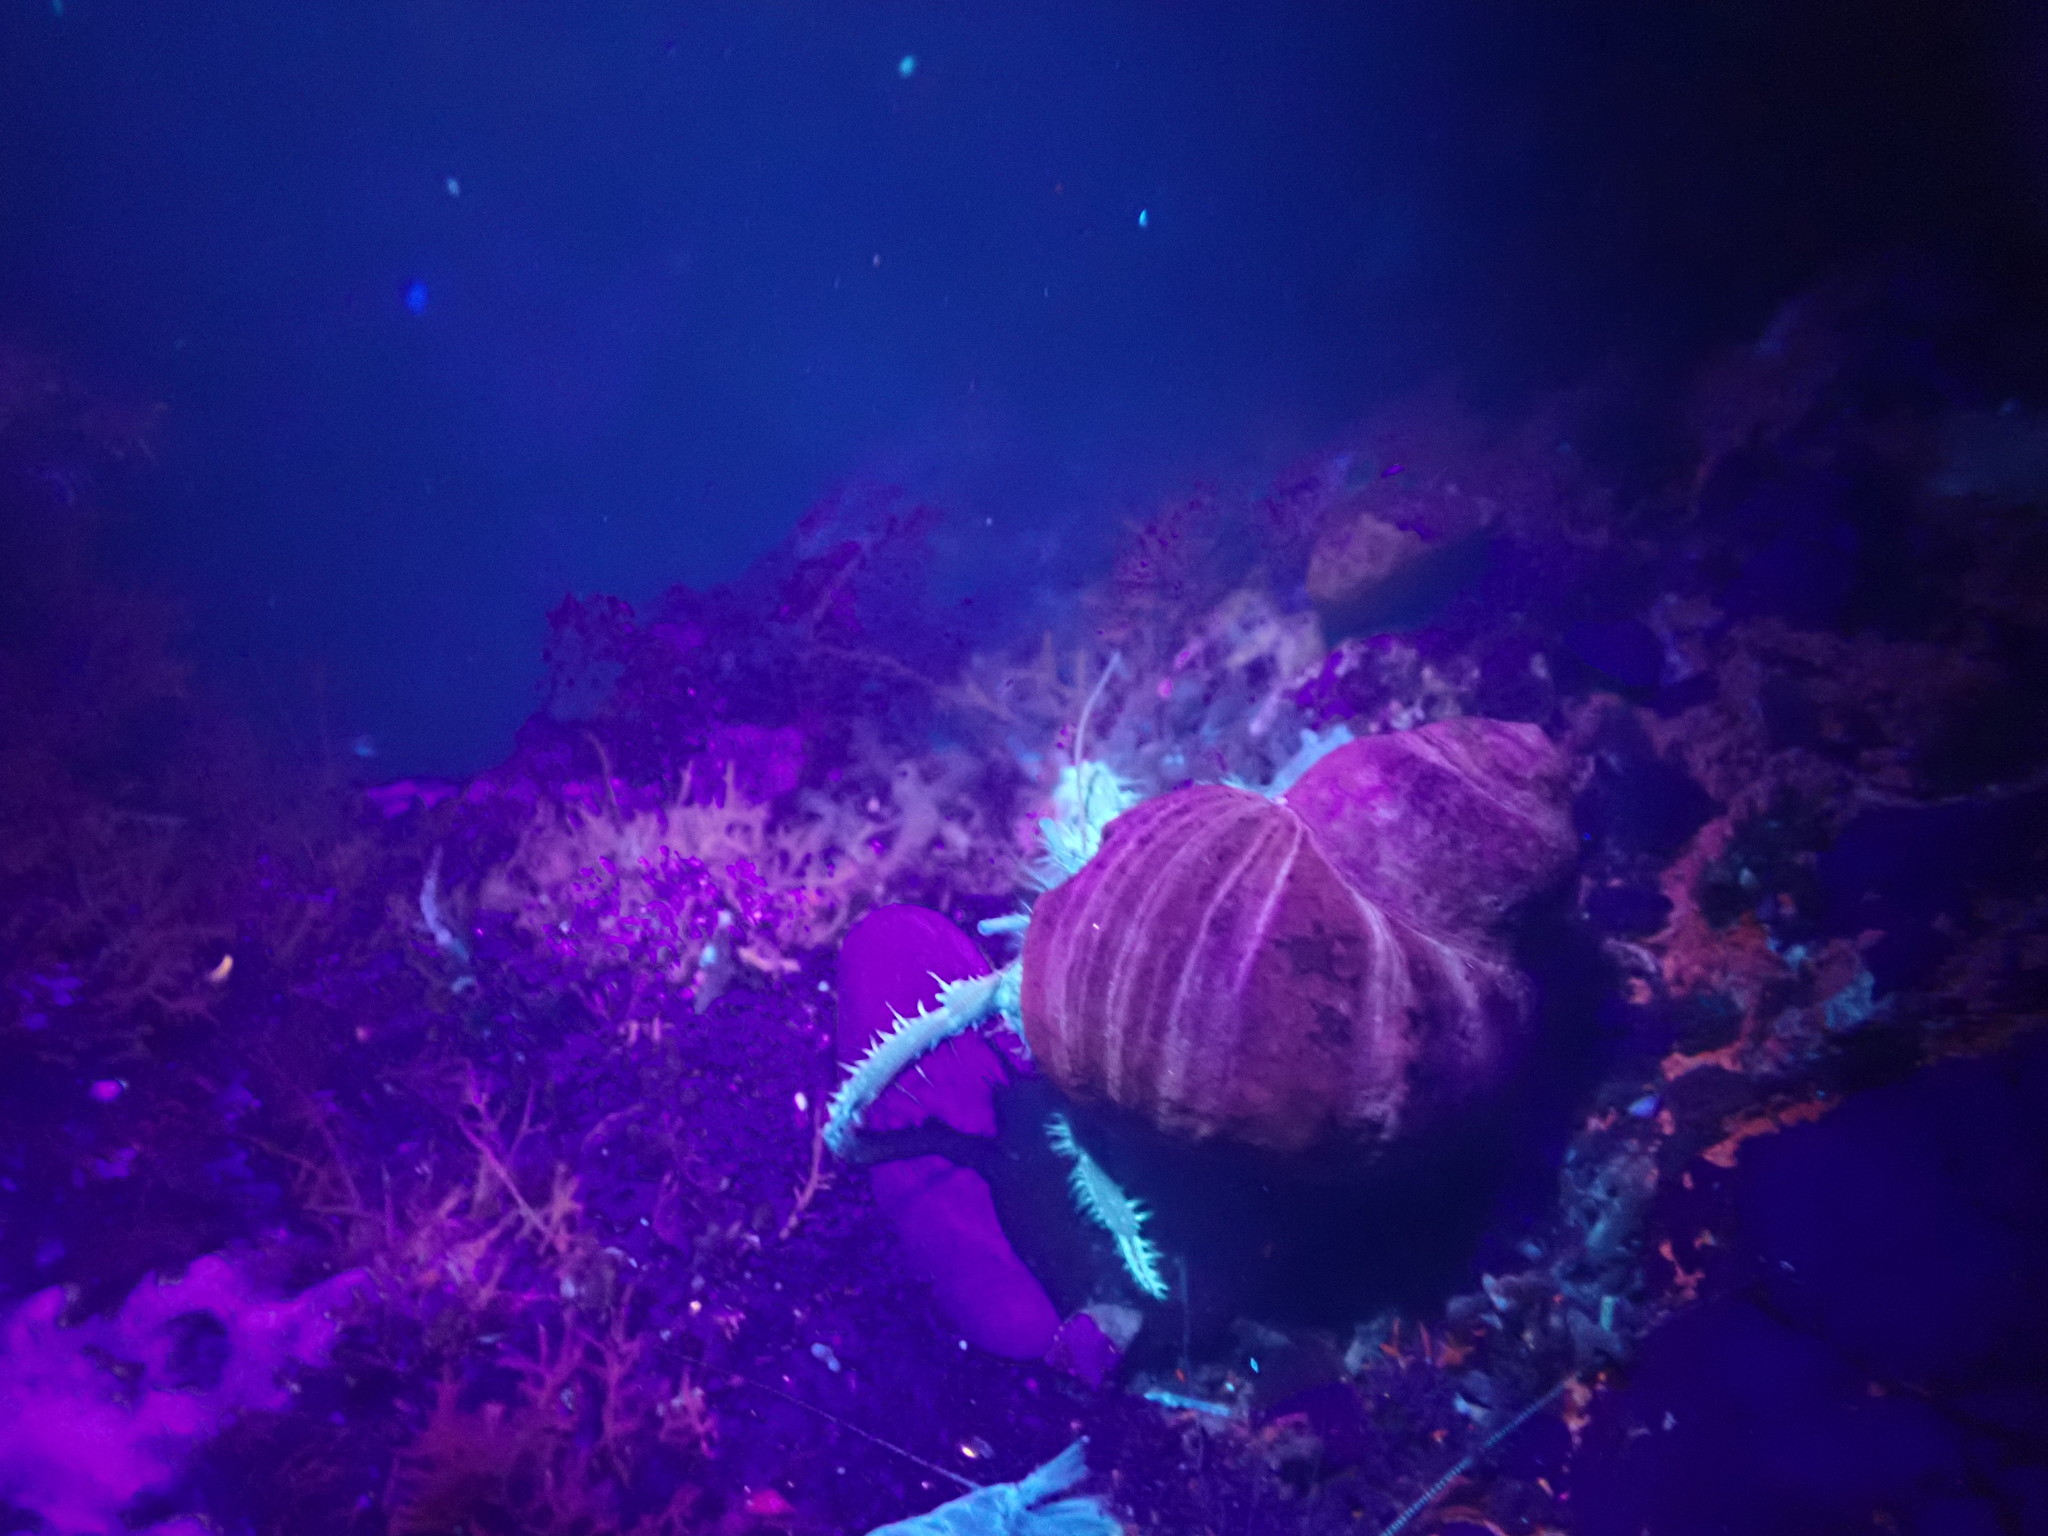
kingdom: Animalia
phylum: Arthropoda
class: Malacostraca
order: Decapoda
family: Diogenidae
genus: Clibanarius
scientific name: Clibanarius erythropus
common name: Hermit crab
